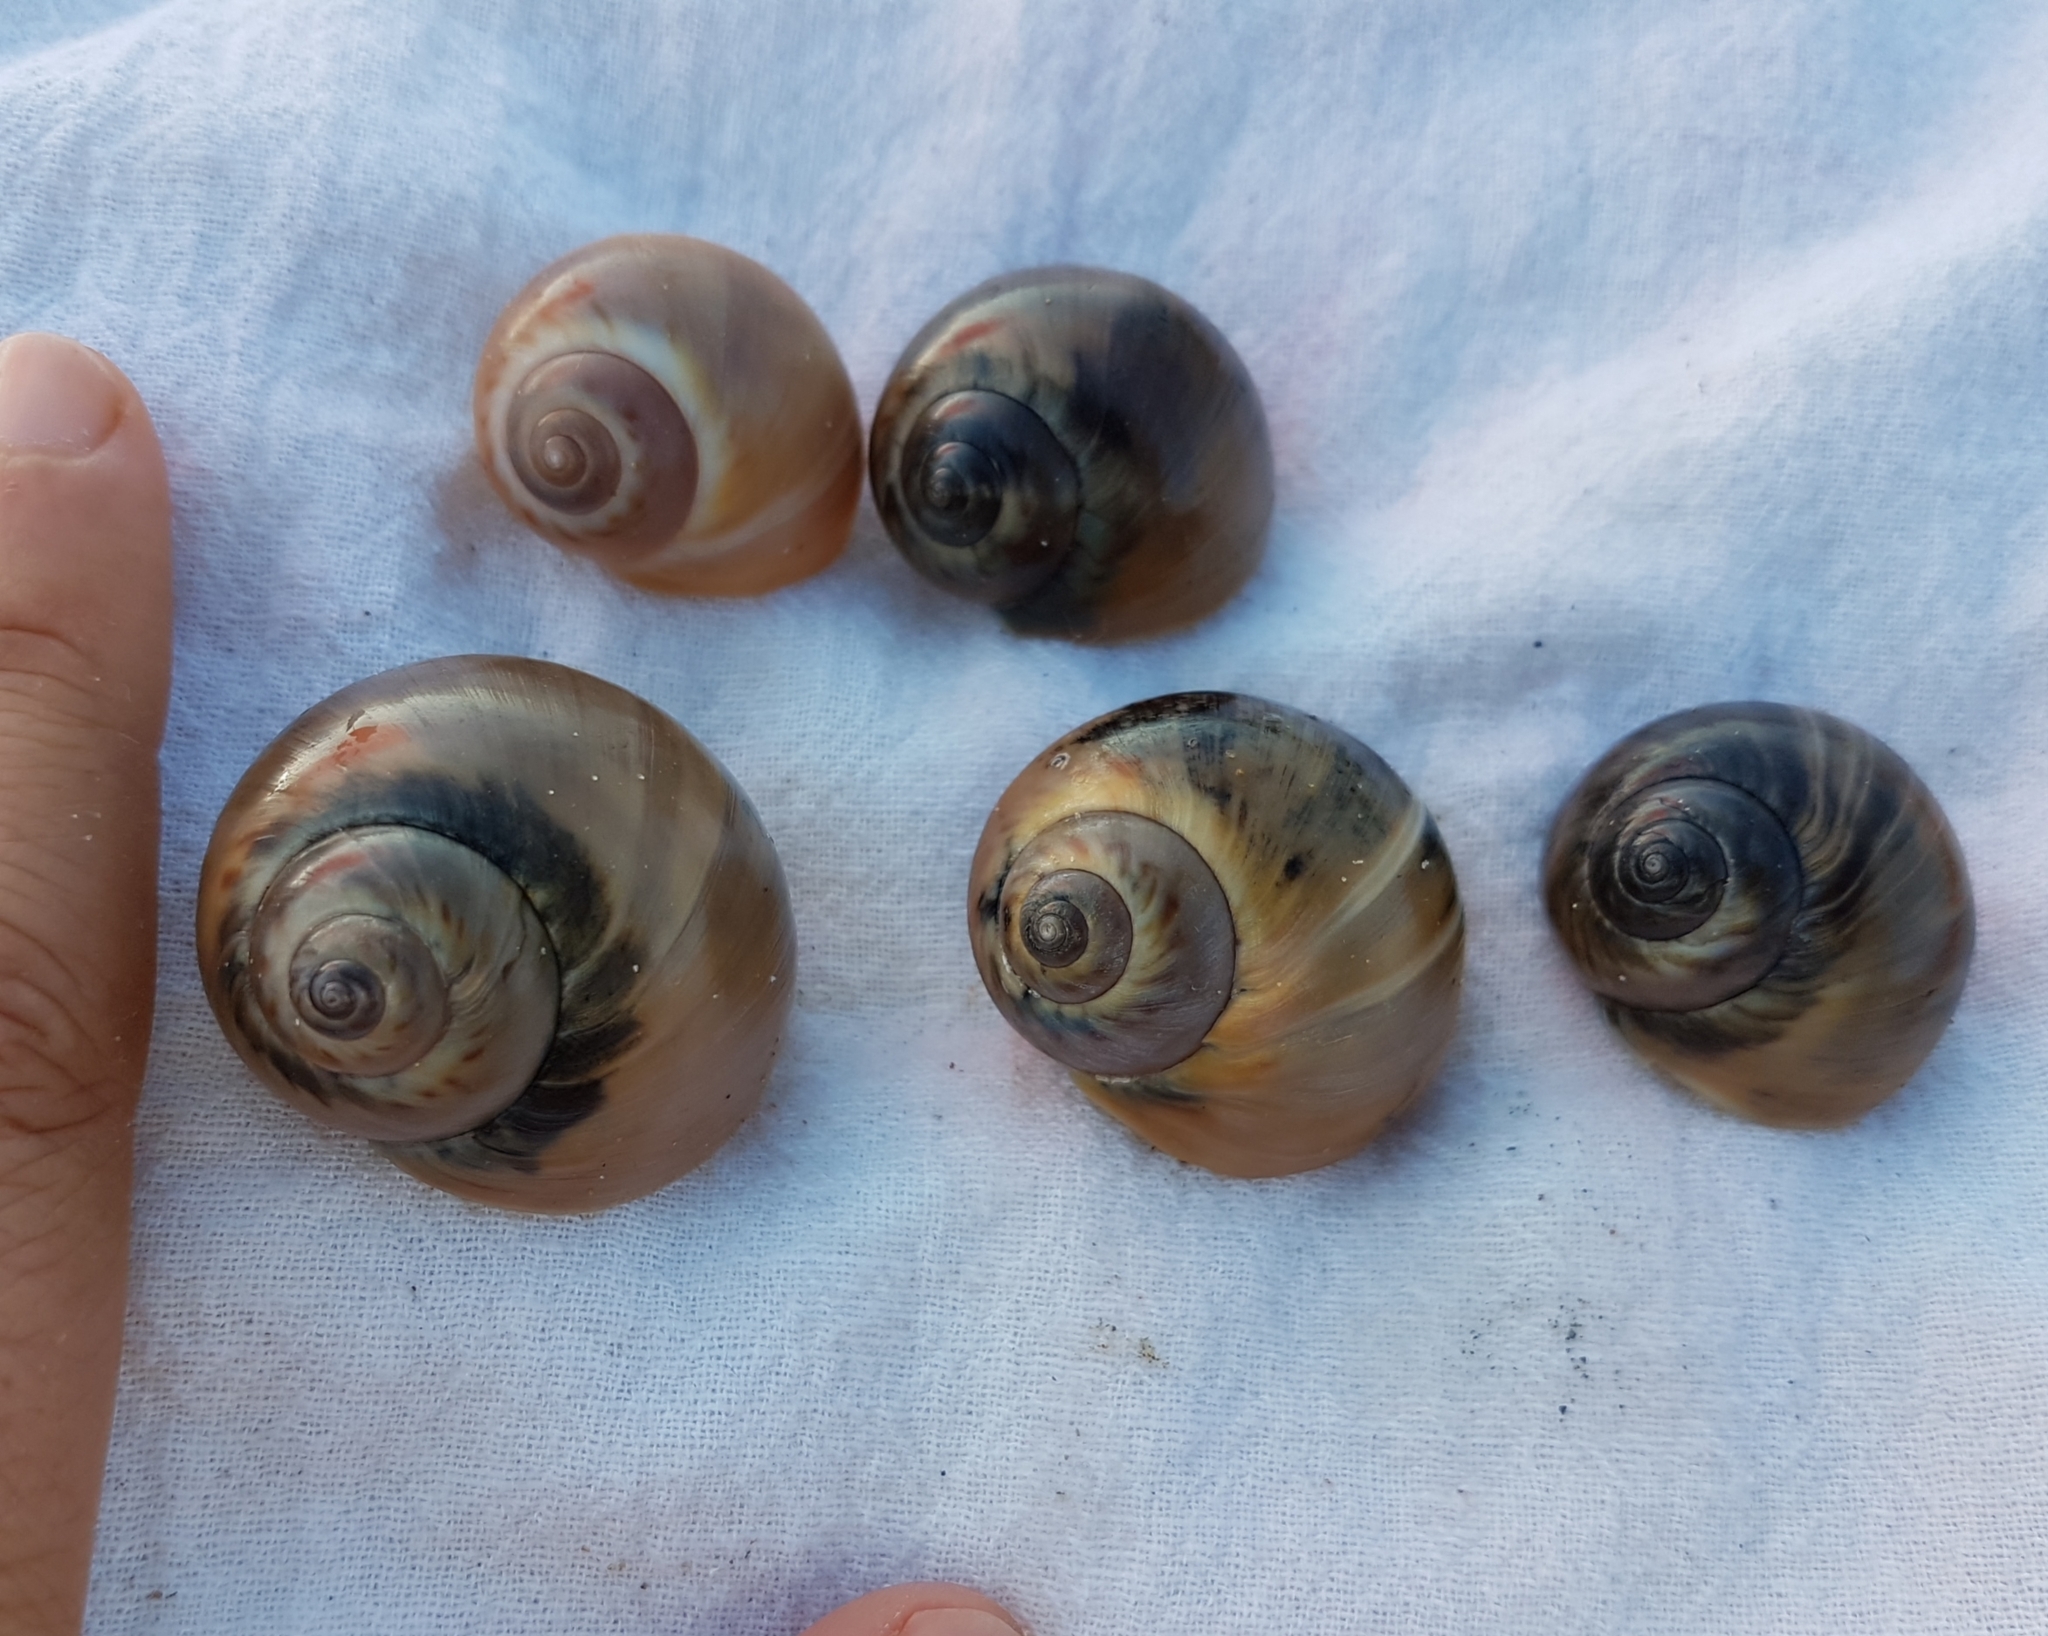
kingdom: Animalia
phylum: Mollusca
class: Gastropoda
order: Littorinimorpha
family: Naticidae
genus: Euspira
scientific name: Euspira catena
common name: Necklace shell
